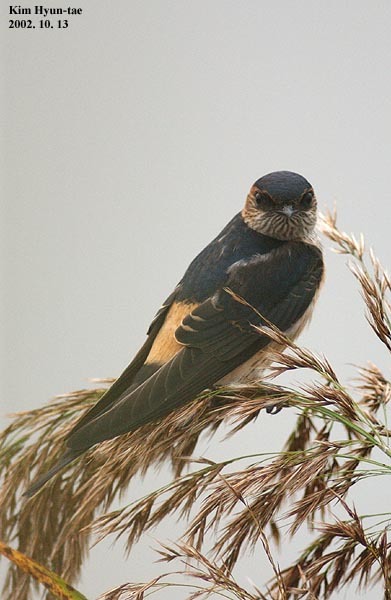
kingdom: Animalia
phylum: Chordata
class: Aves
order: Passeriformes
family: Hirundinidae
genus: Cecropis
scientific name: Cecropis daurica
